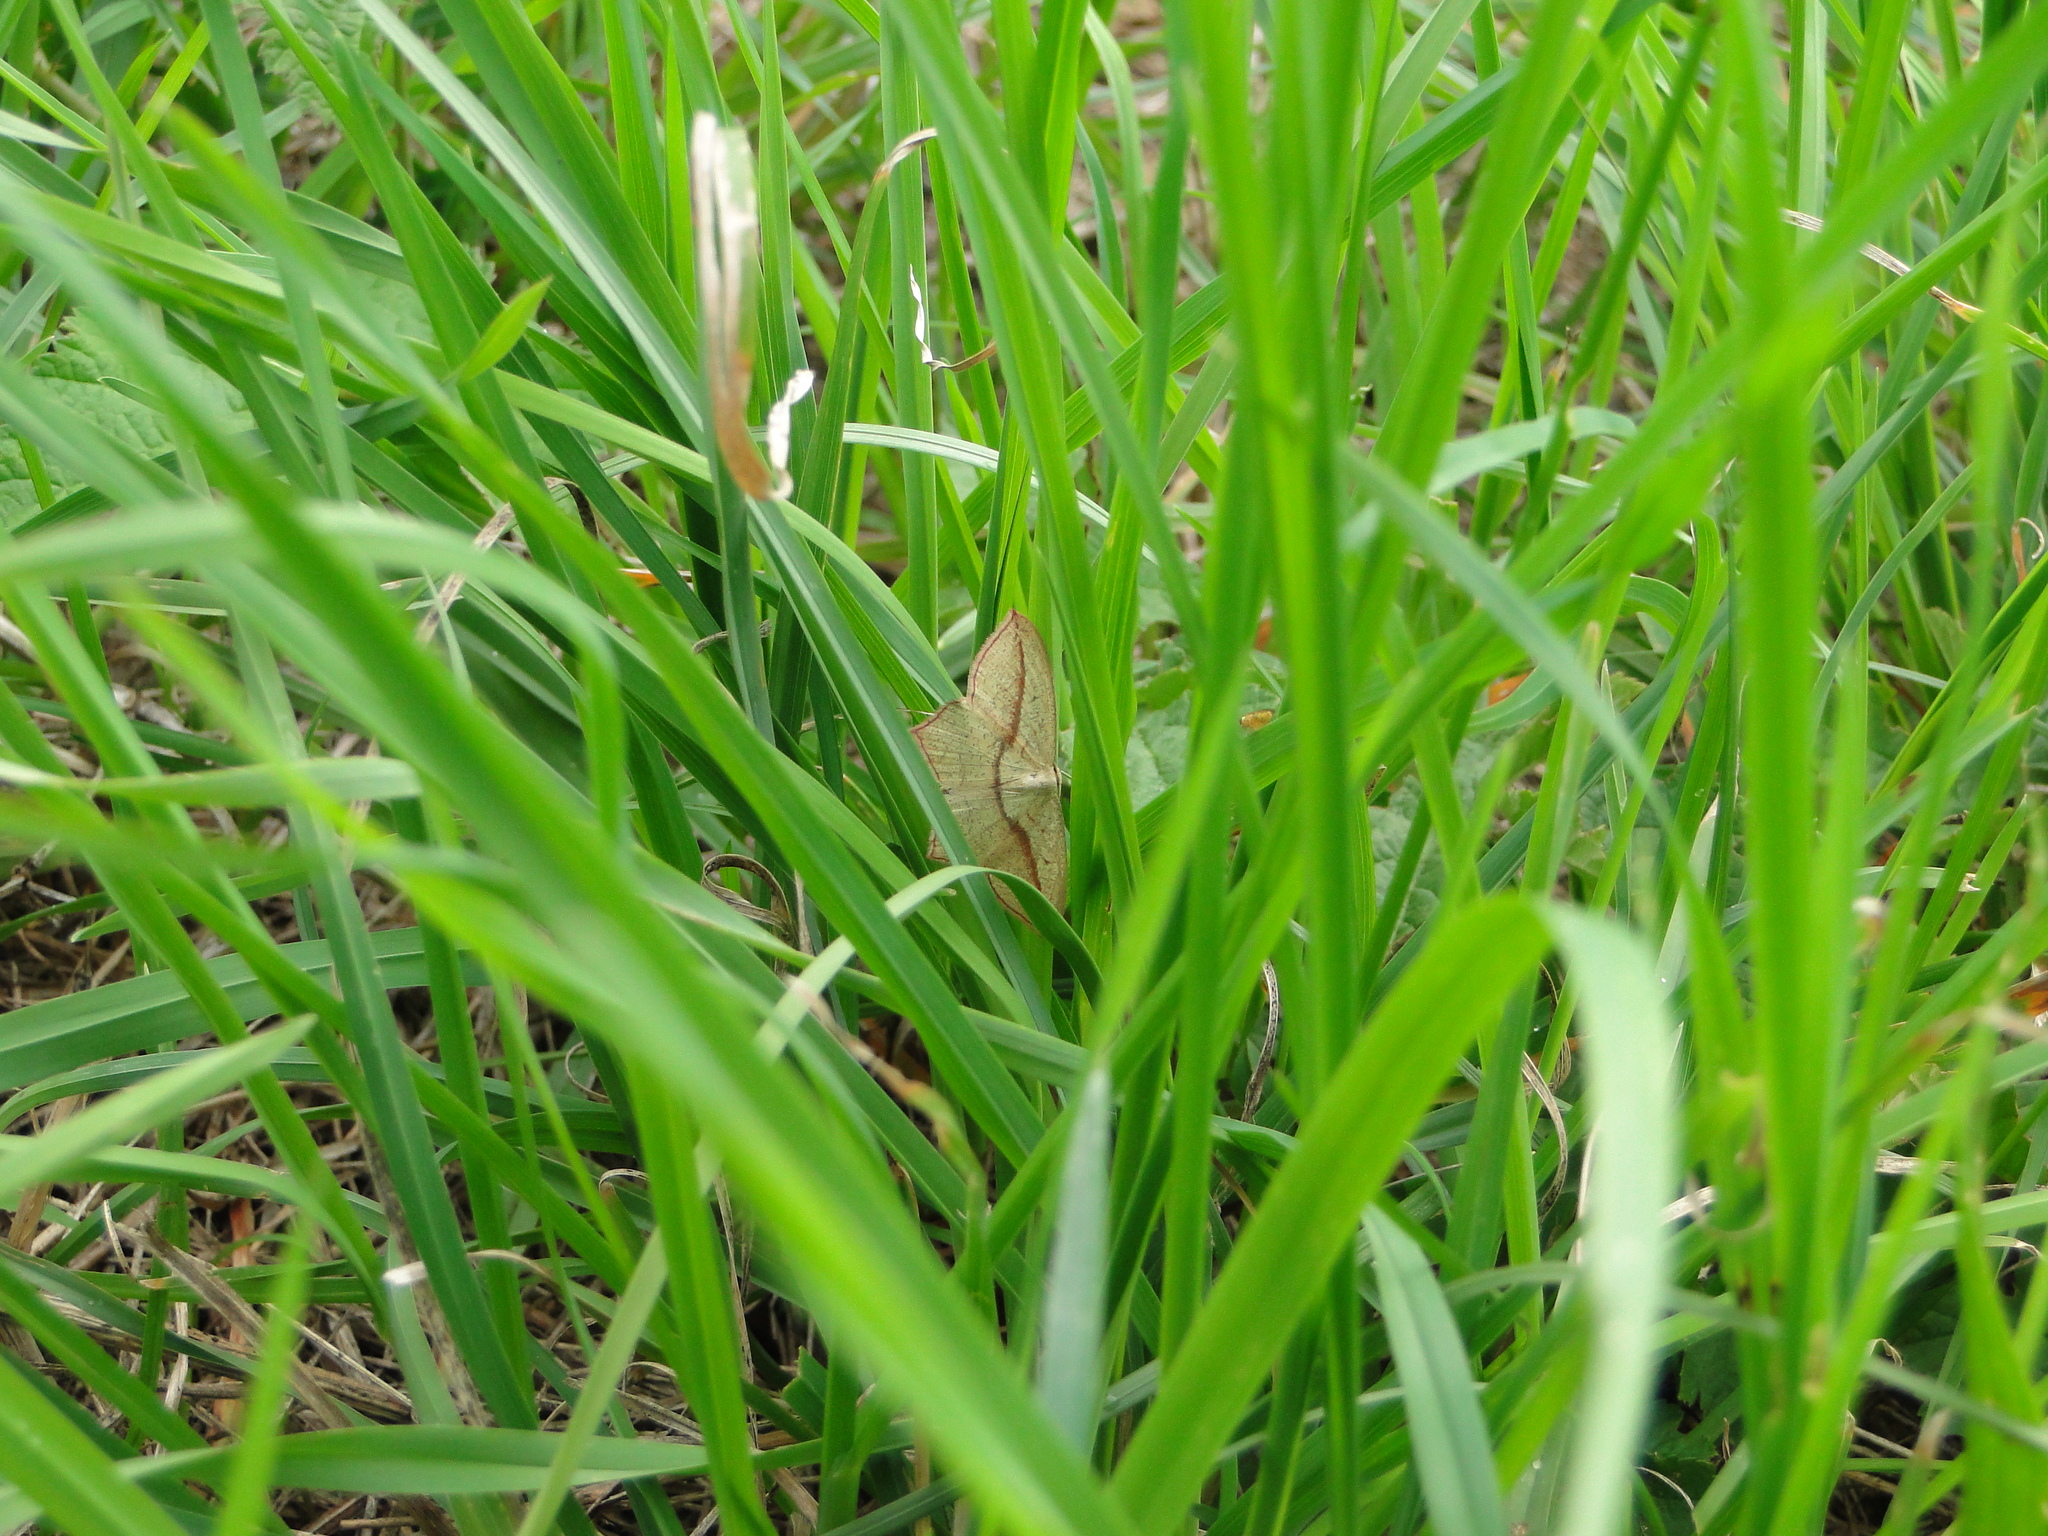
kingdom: Animalia
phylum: Arthropoda
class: Insecta
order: Lepidoptera
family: Geometridae
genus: Timandra
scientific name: Timandra comae
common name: Blood-vein
